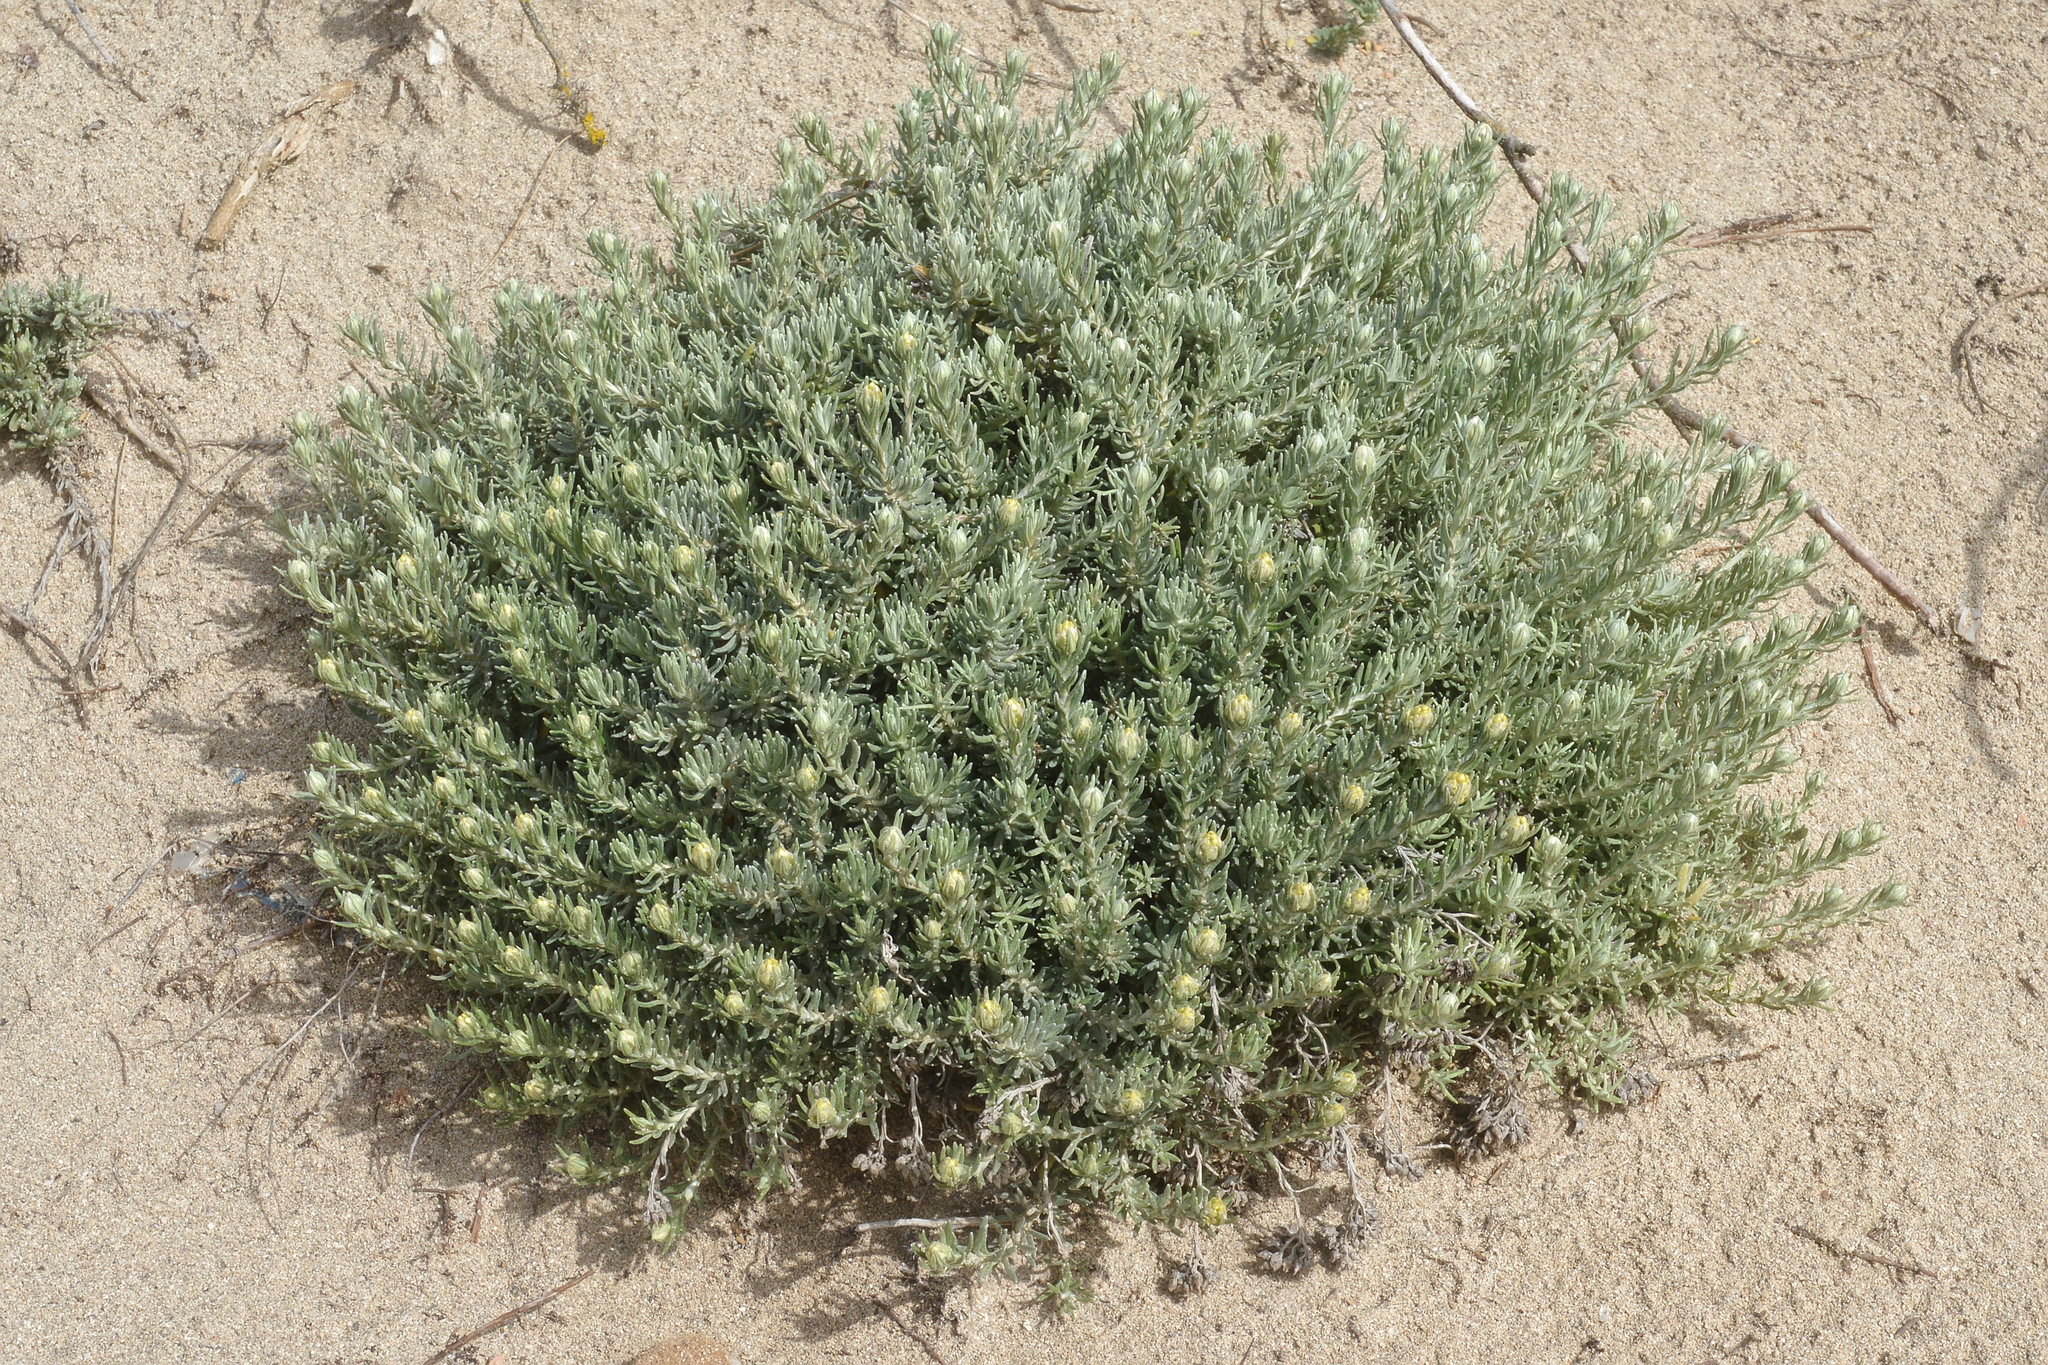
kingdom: Plantae
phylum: Tracheophyta
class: Magnoliopsida
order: Asterales
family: Asteraceae
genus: Helichrysum
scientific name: Helichrysum stoechas
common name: Goldilocks
